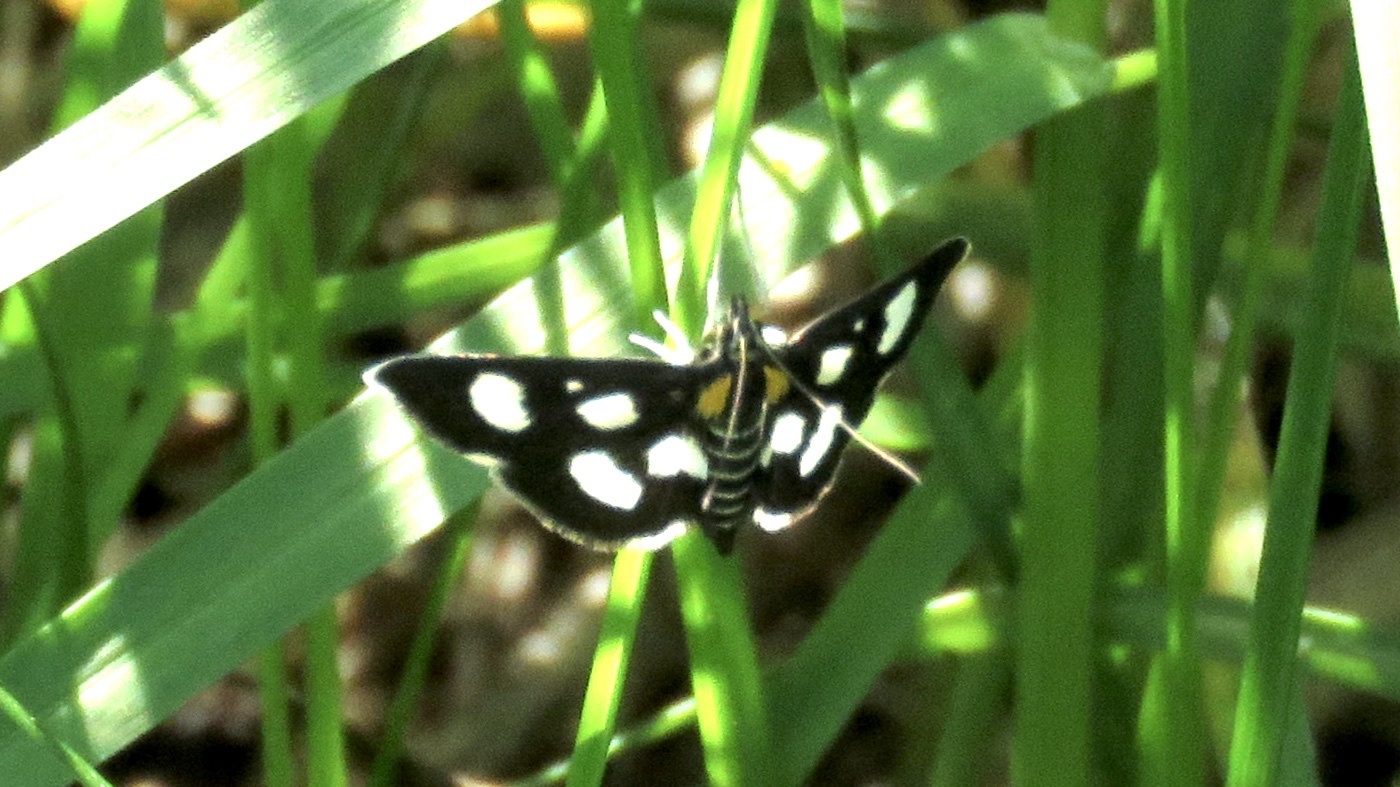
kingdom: Animalia
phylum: Arthropoda
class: Insecta
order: Lepidoptera
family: Crambidae
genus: Anania
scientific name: Anania funebris
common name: White-spotted sable moth
